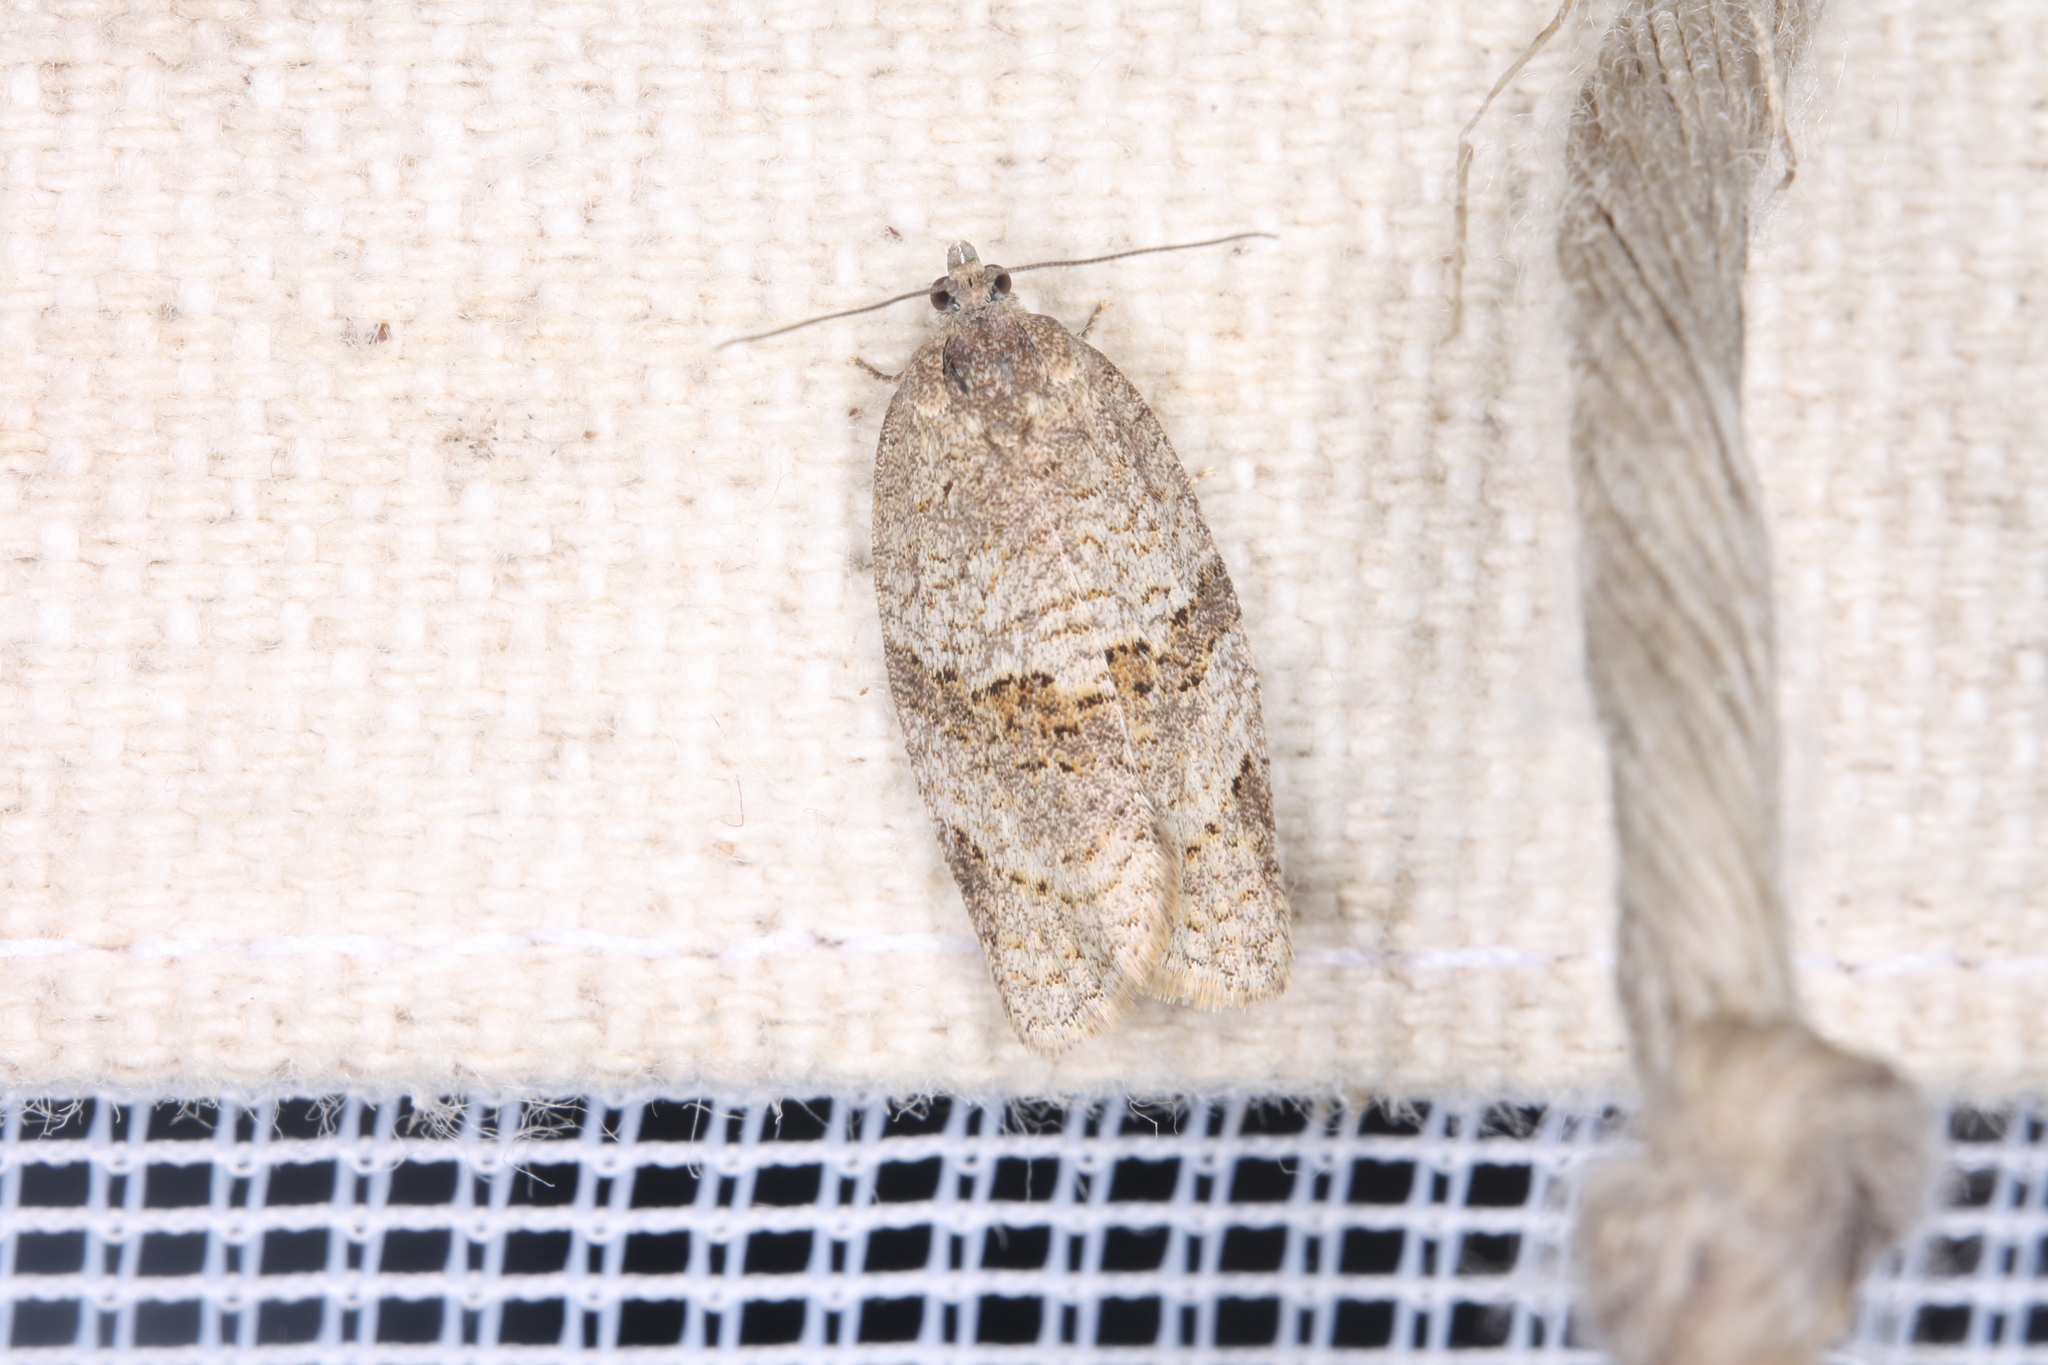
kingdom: Animalia
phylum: Arthropoda
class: Insecta
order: Lepidoptera
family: Tortricidae
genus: Syndemis
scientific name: Syndemis musculana
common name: Dark-barred twist
